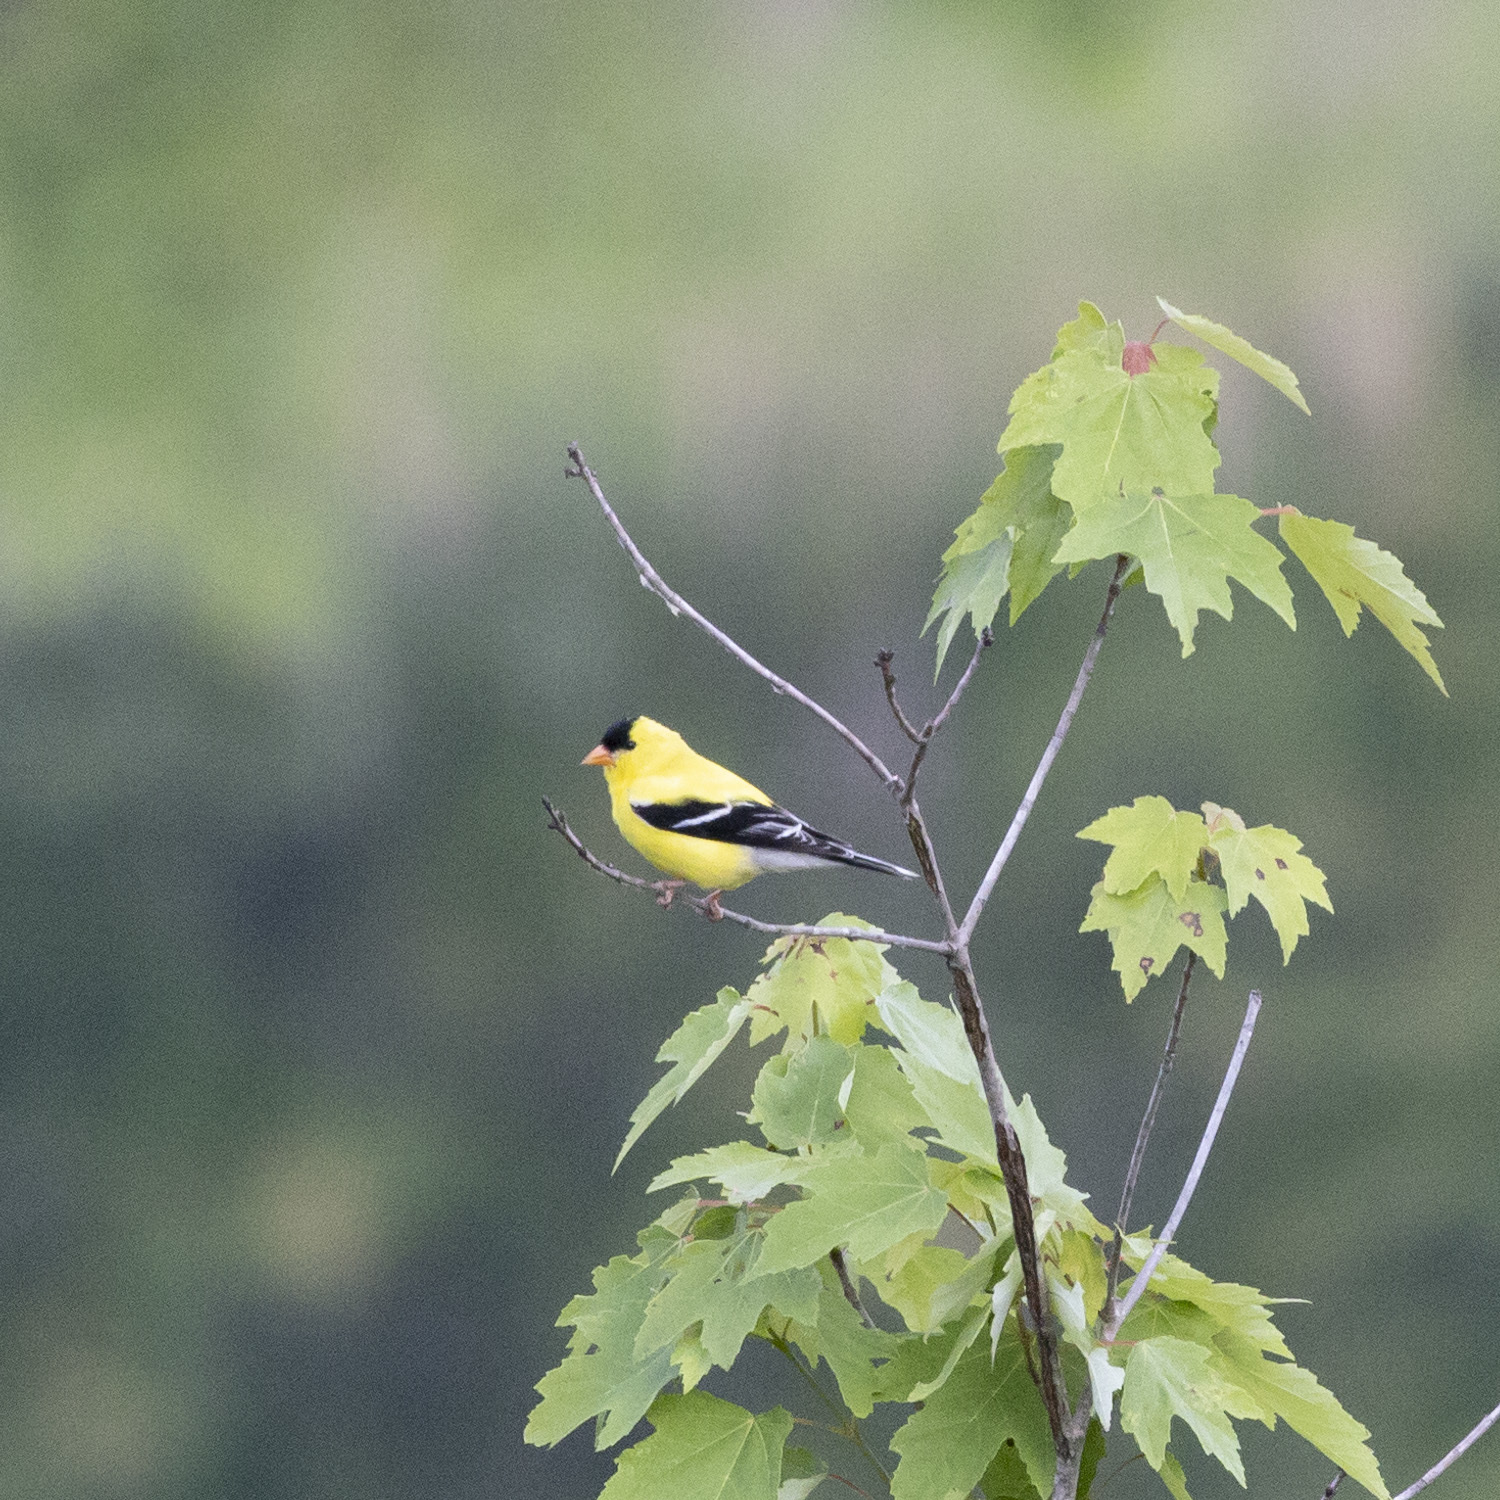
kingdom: Animalia
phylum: Chordata
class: Aves
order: Passeriformes
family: Fringillidae
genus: Spinus
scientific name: Spinus tristis
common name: American goldfinch
